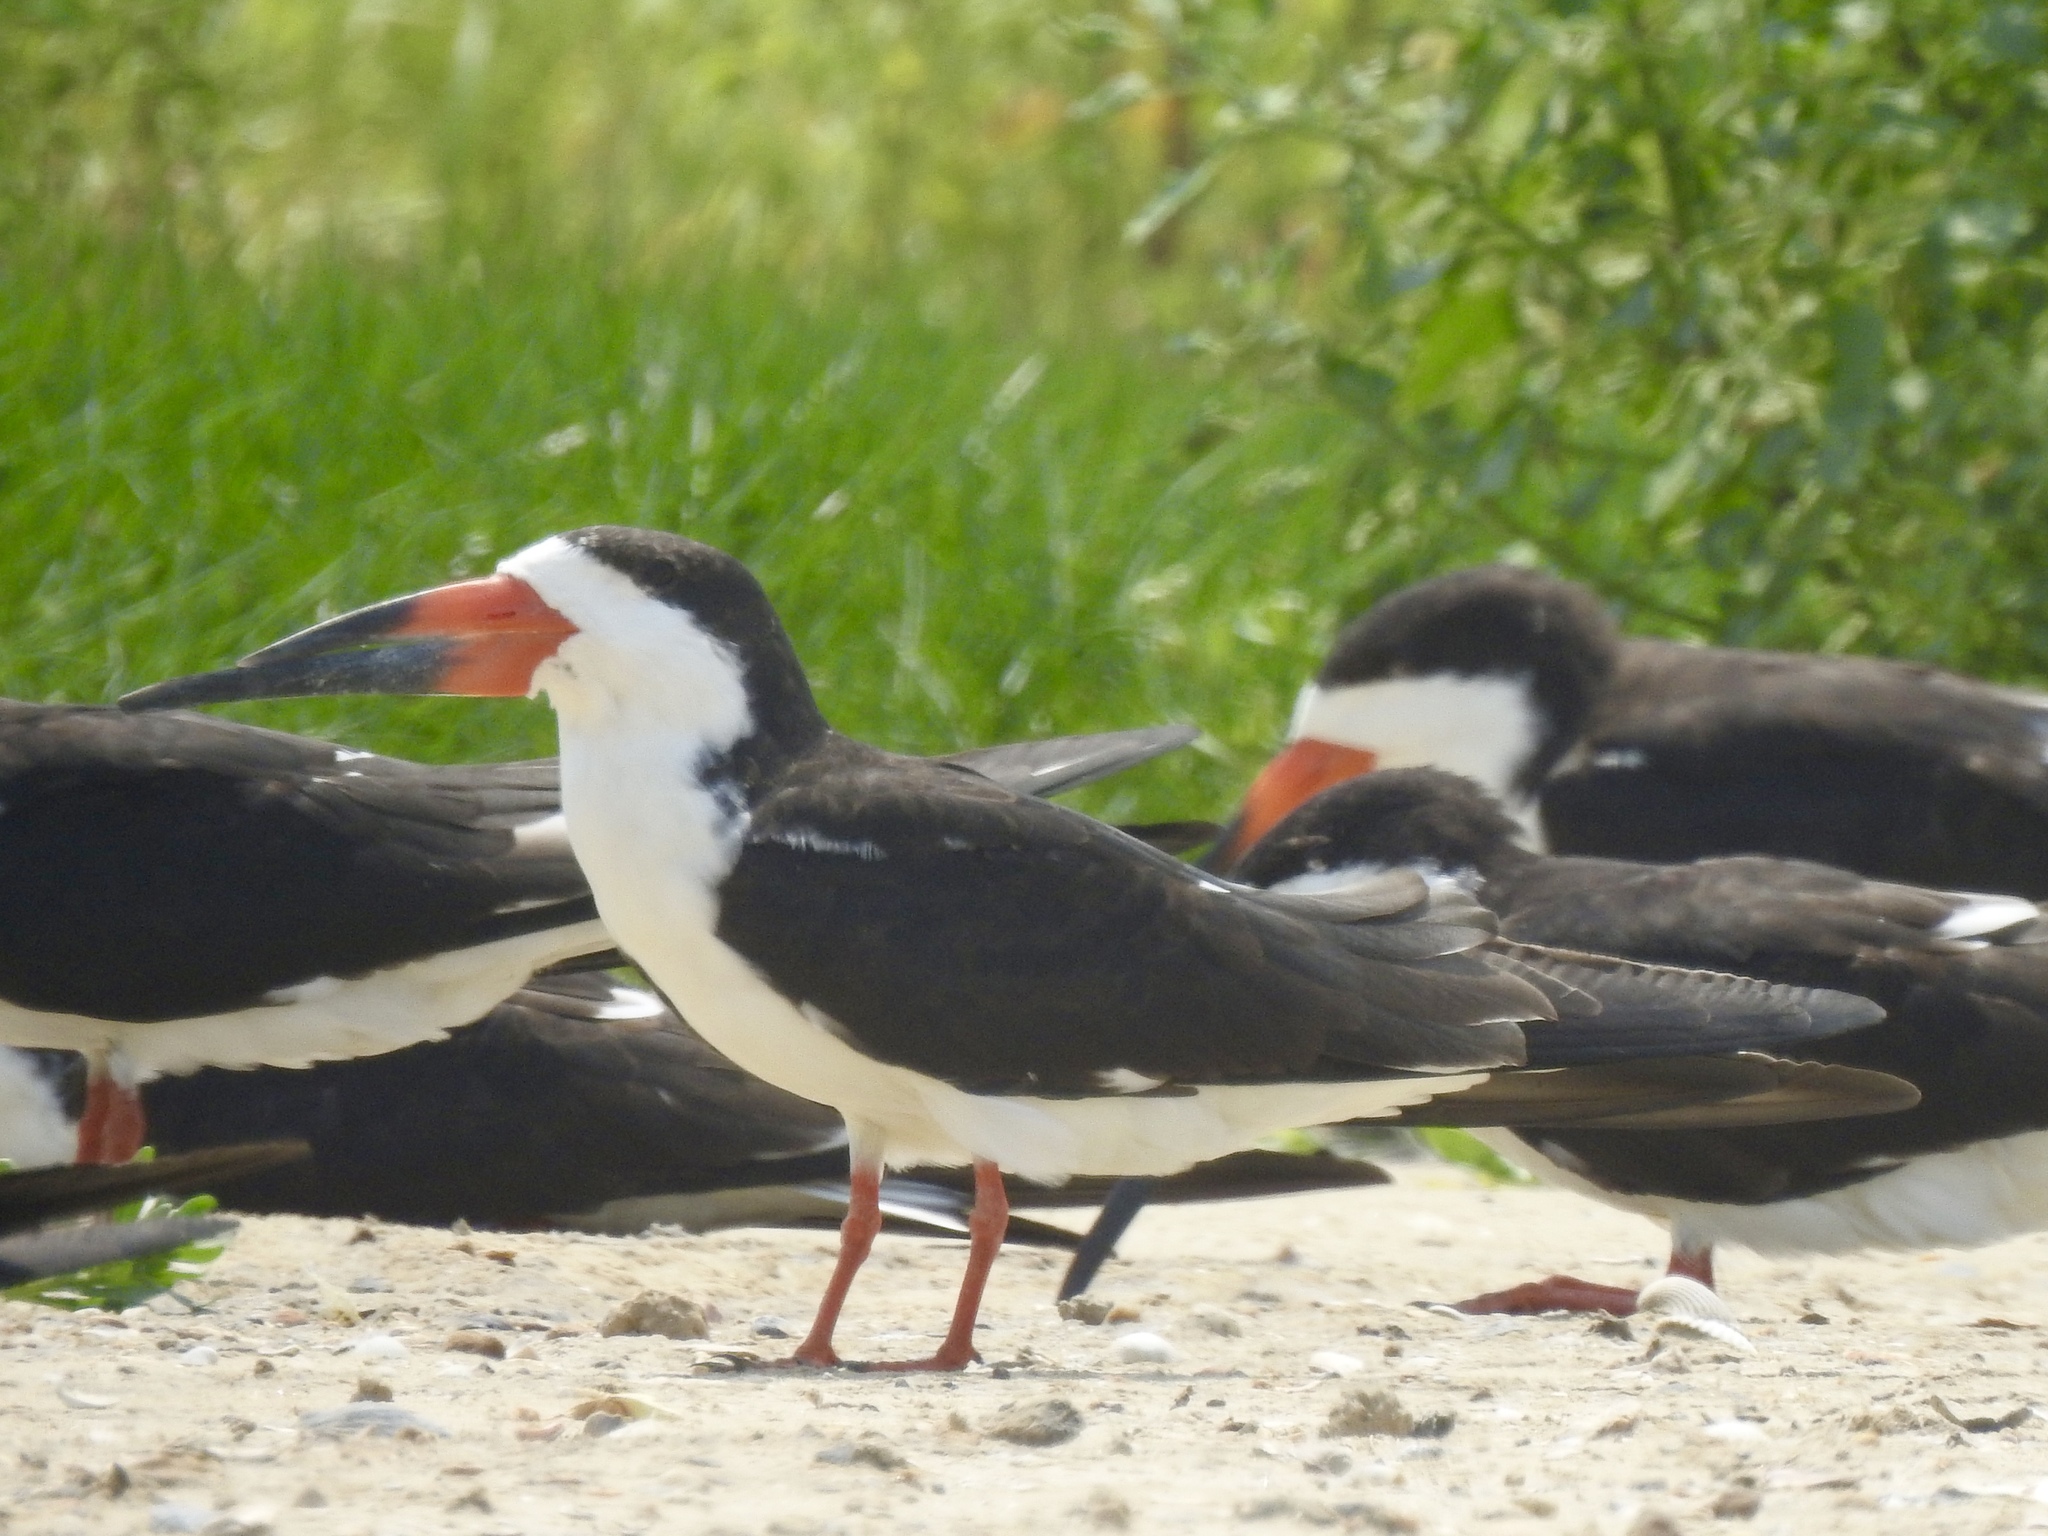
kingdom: Animalia
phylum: Chordata
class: Aves
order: Charadriiformes
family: Laridae
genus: Rynchops
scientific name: Rynchops niger
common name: Black skimmer
